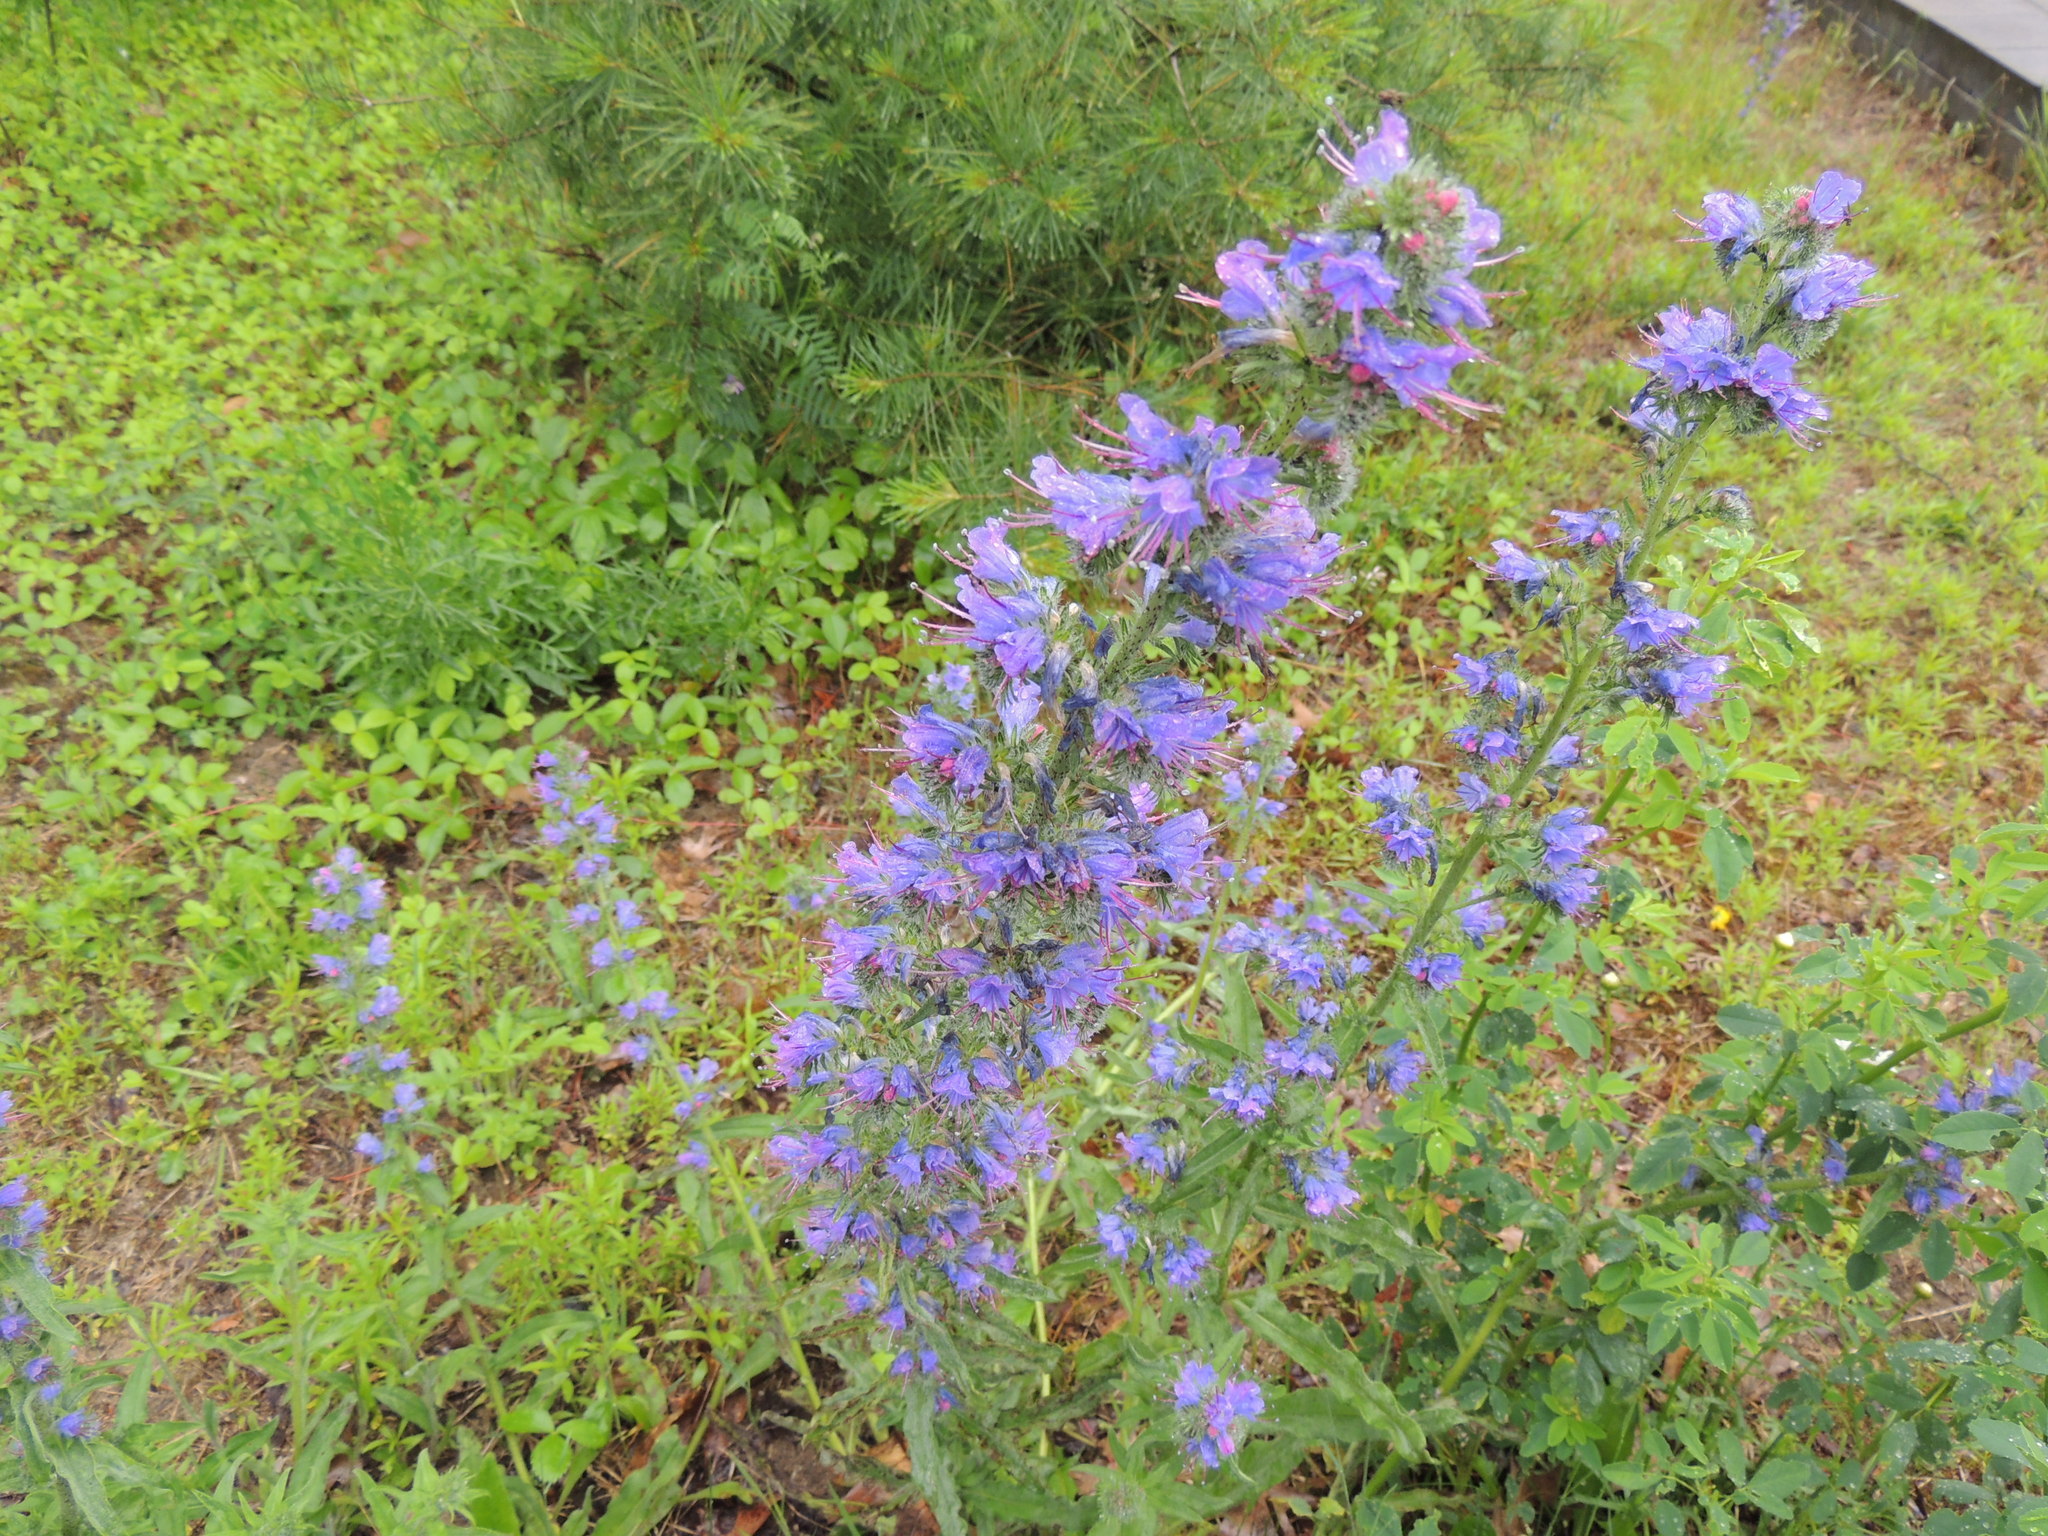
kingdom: Plantae
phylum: Tracheophyta
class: Magnoliopsida
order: Boraginales
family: Boraginaceae
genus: Echium
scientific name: Echium vulgare
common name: Common viper's bugloss
